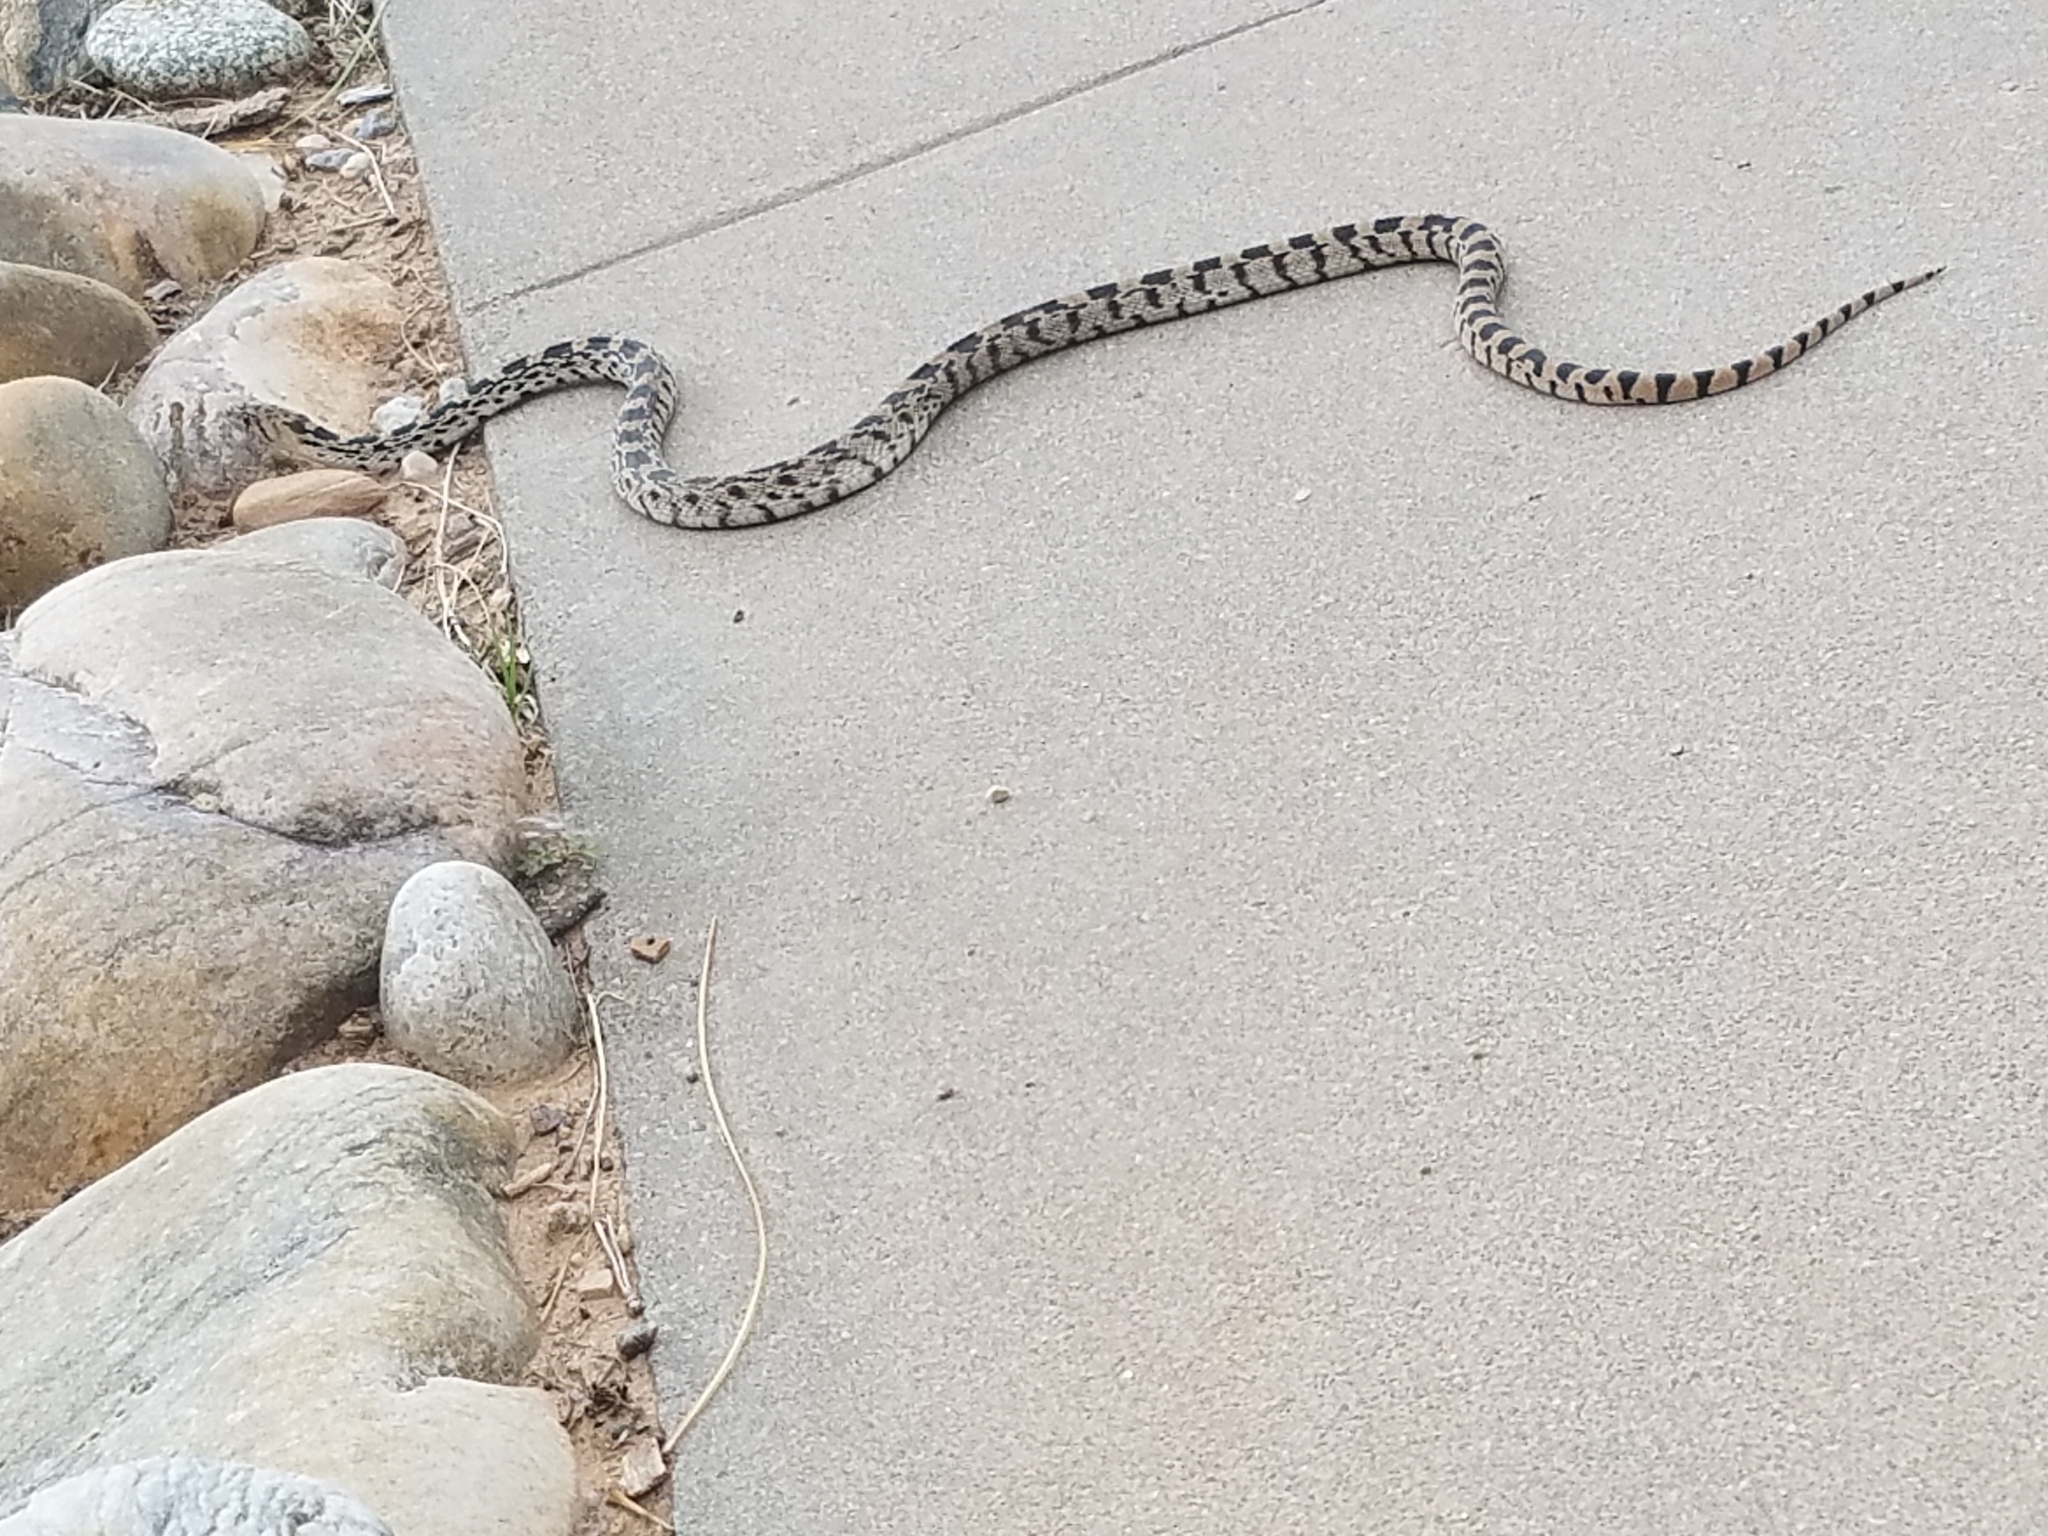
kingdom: Animalia
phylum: Chordata
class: Squamata
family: Colubridae
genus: Pituophis
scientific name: Pituophis catenifer
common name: Gopher snake
